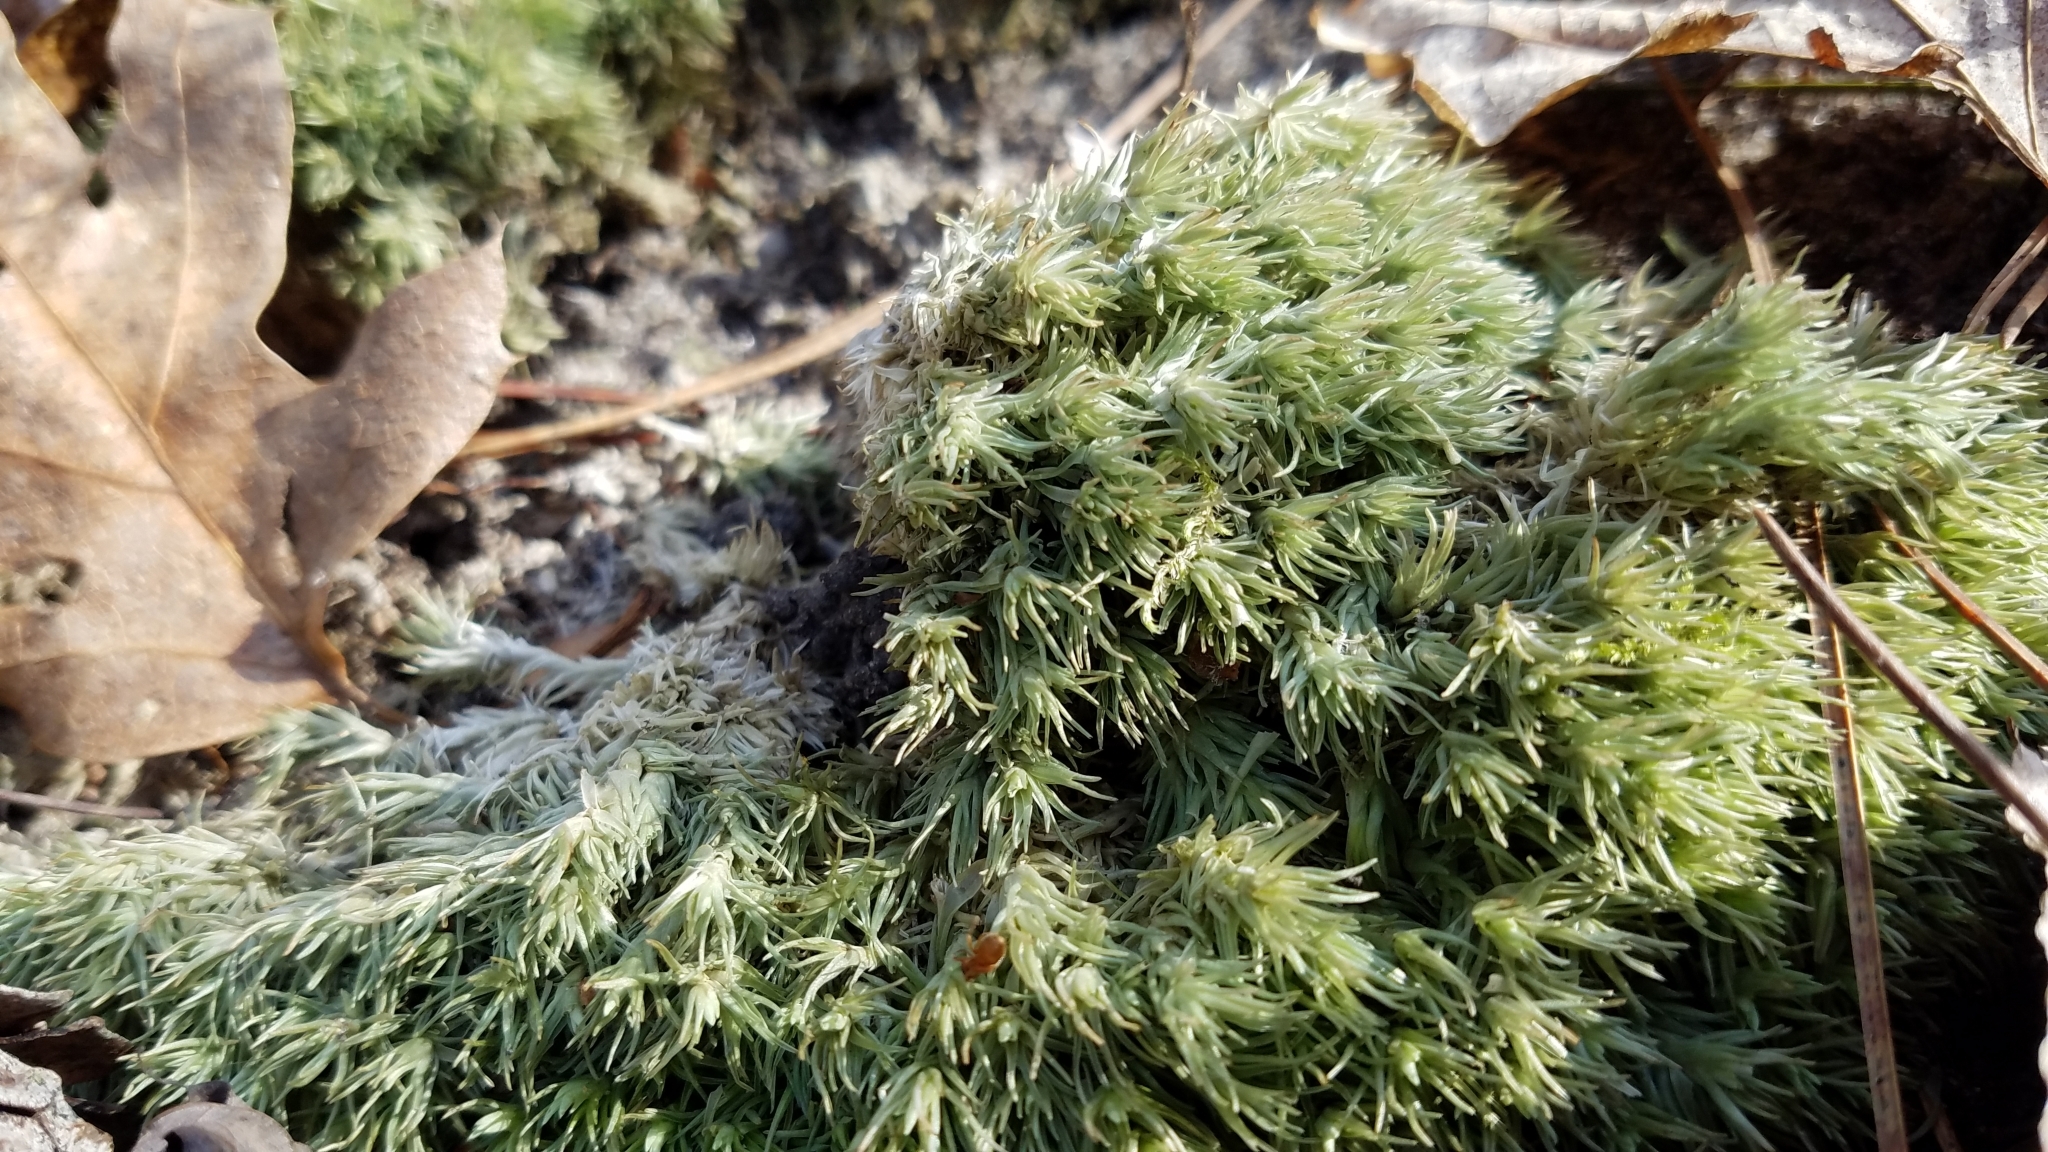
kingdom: Plantae
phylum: Bryophyta
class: Bryopsida
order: Dicranales
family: Leucobryaceae
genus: Leucobryum
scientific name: Leucobryum glaucum
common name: Large white-moss
